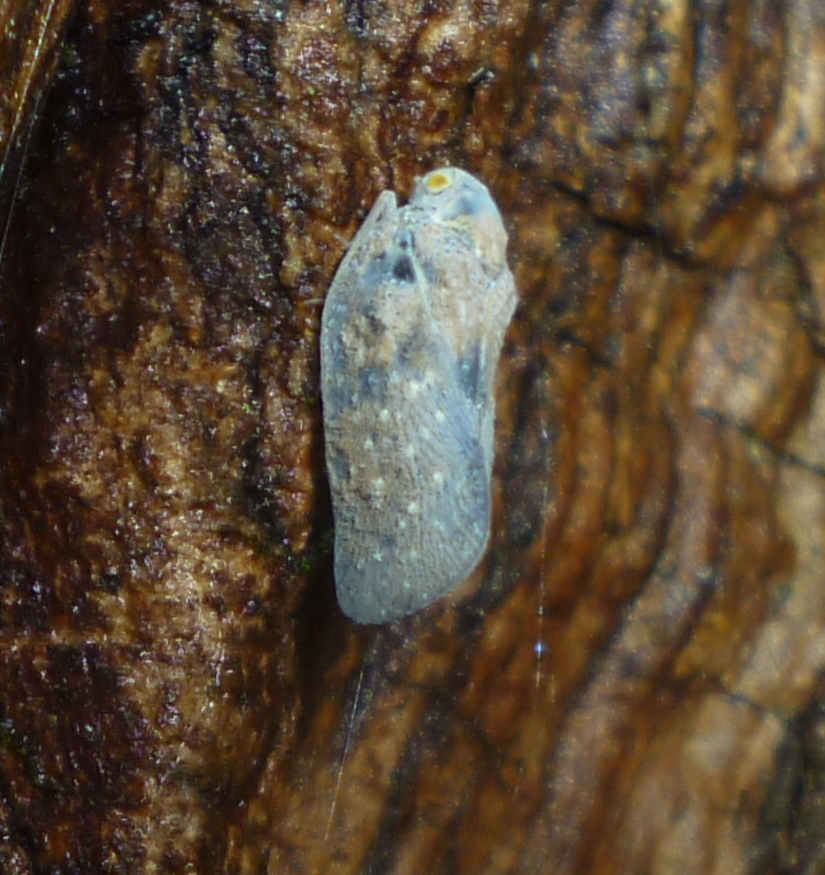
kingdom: Animalia
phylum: Arthropoda
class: Insecta
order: Hemiptera
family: Flatidae
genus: Metcalfa
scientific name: Metcalfa pruinosa
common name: Citrus flatid planthopper
